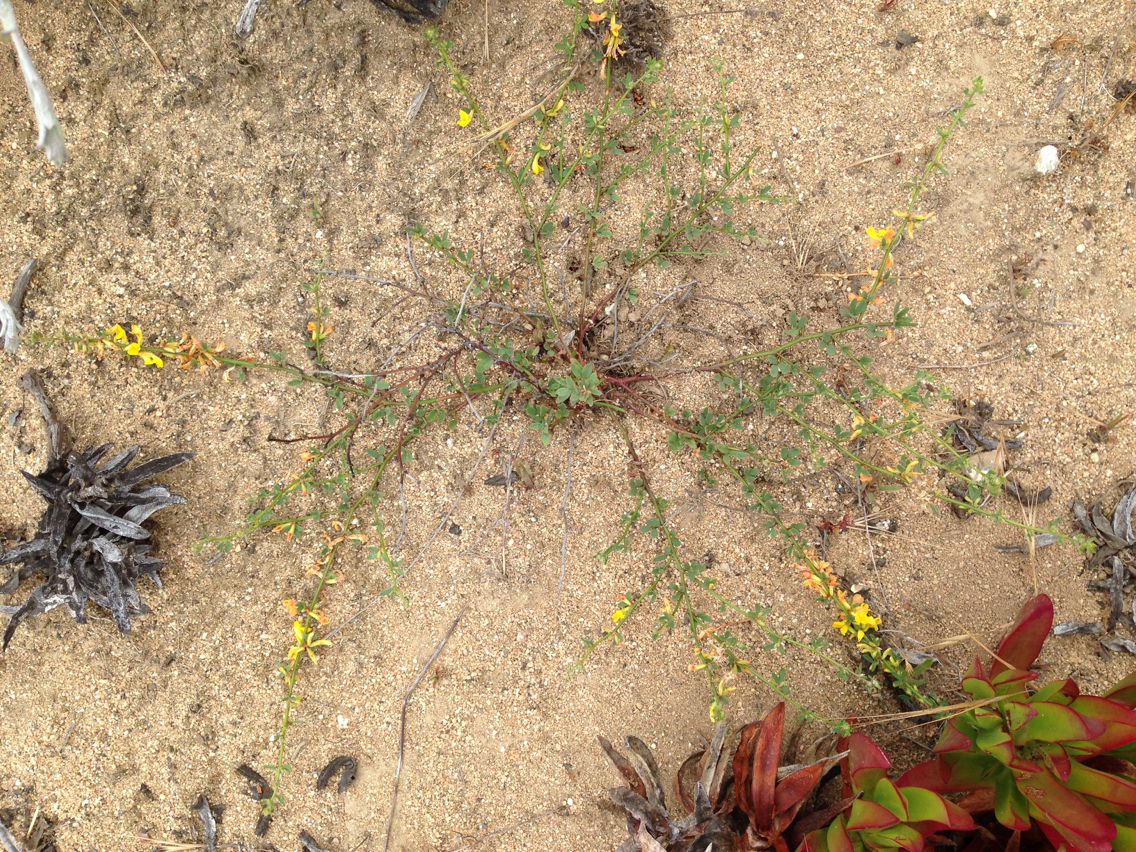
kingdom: Plantae
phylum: Tracheophyta
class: Magnoliopsida
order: Fabales
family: Fabaceae
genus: Acmispon
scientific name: Acmispon glaber
